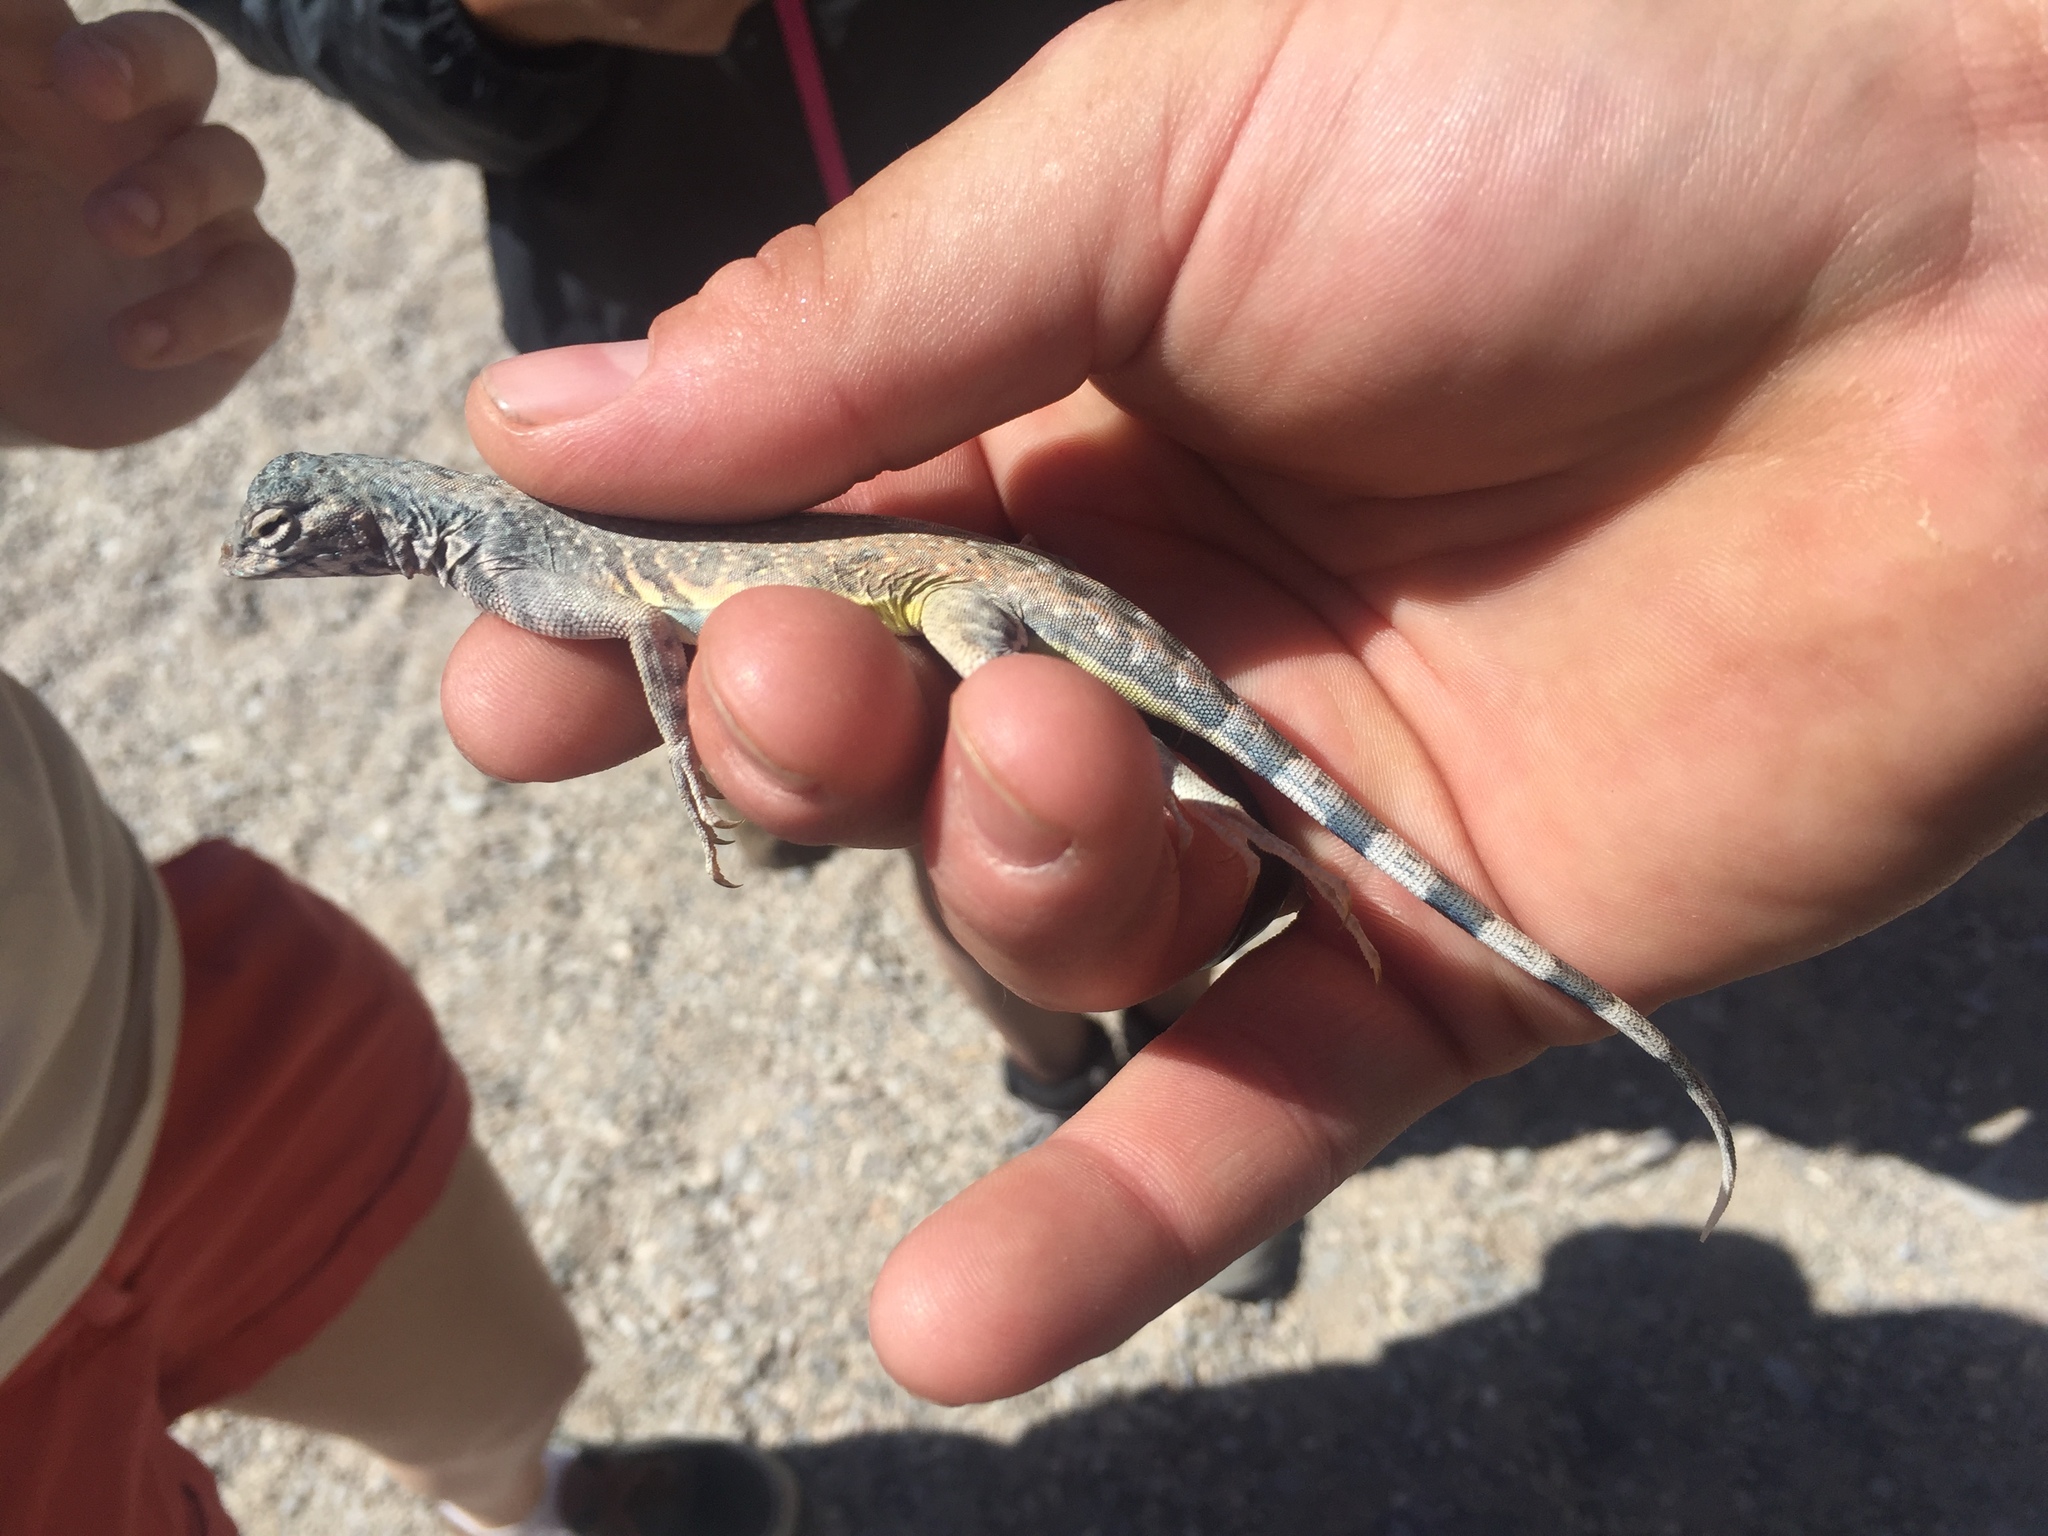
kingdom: Animalia
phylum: Chordata
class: Squamata
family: Phrynosomatidae
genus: Callisaurus
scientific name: Callisaurus draconoides
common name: Zebra-tailed lizard
